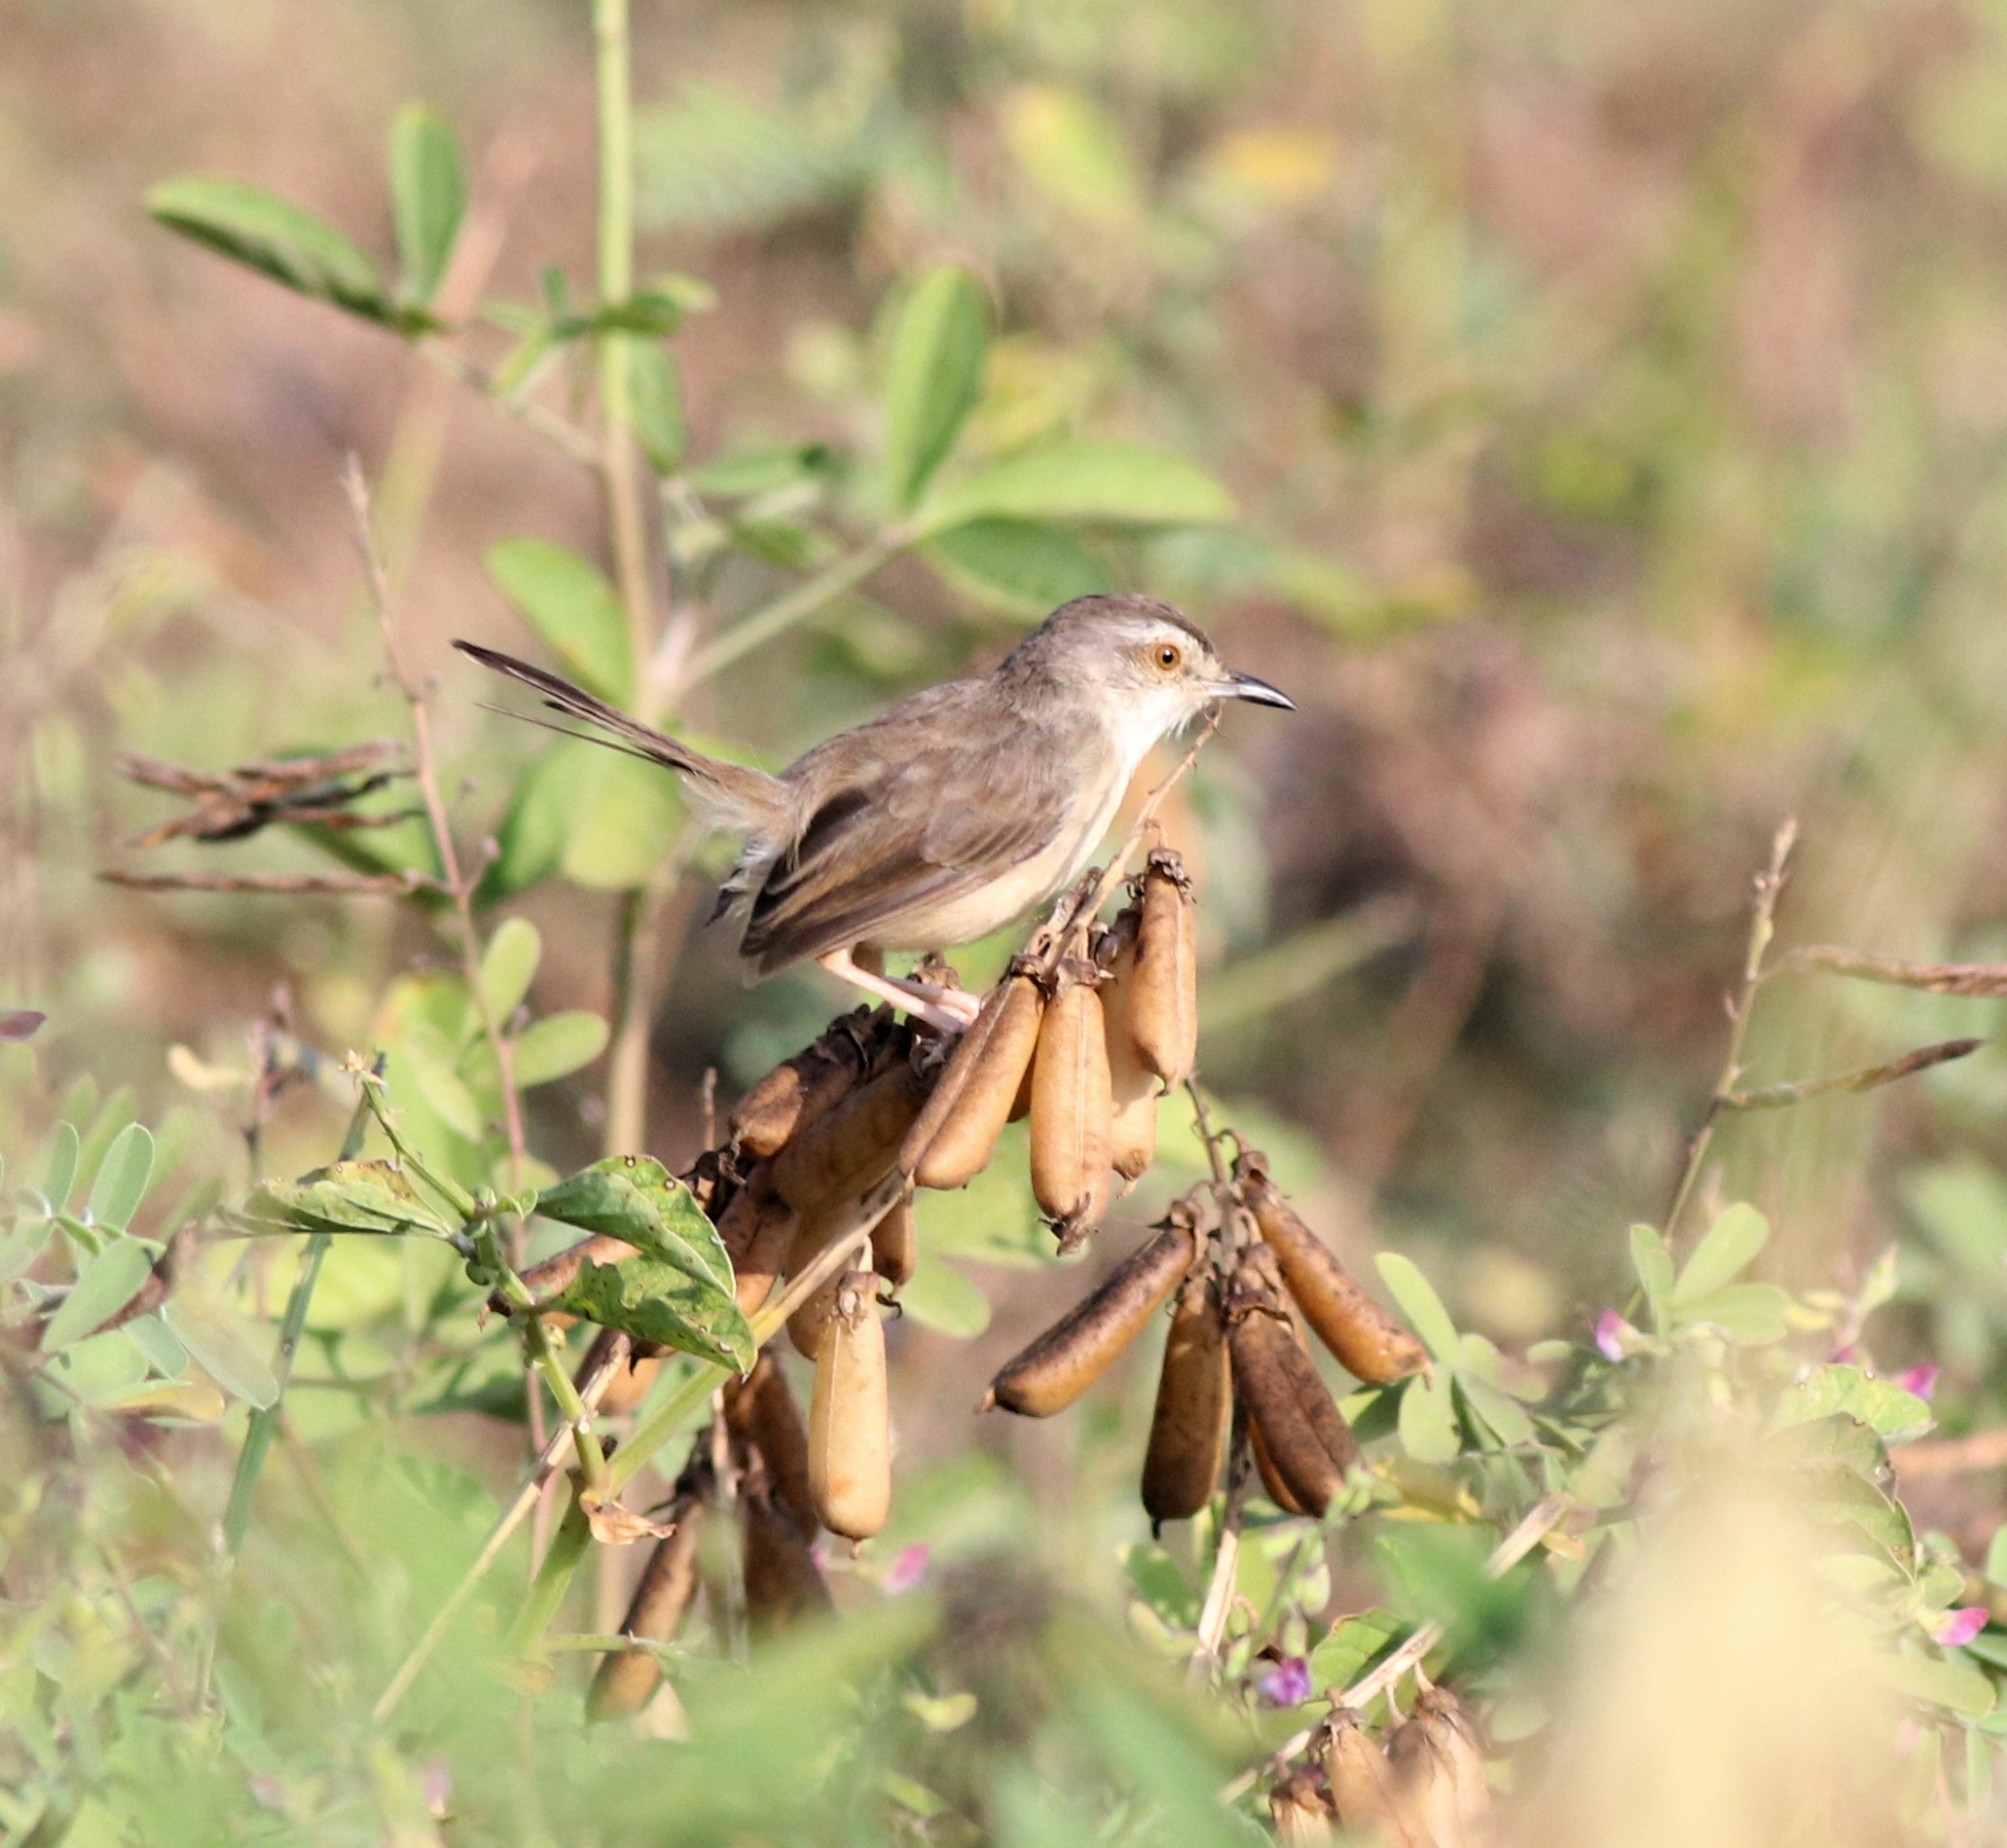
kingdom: Animalia
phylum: Chordata
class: Aves
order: Passeriformes
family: Cisticolidae
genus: Prinia
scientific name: Prinia inornata
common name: Plain prinia
